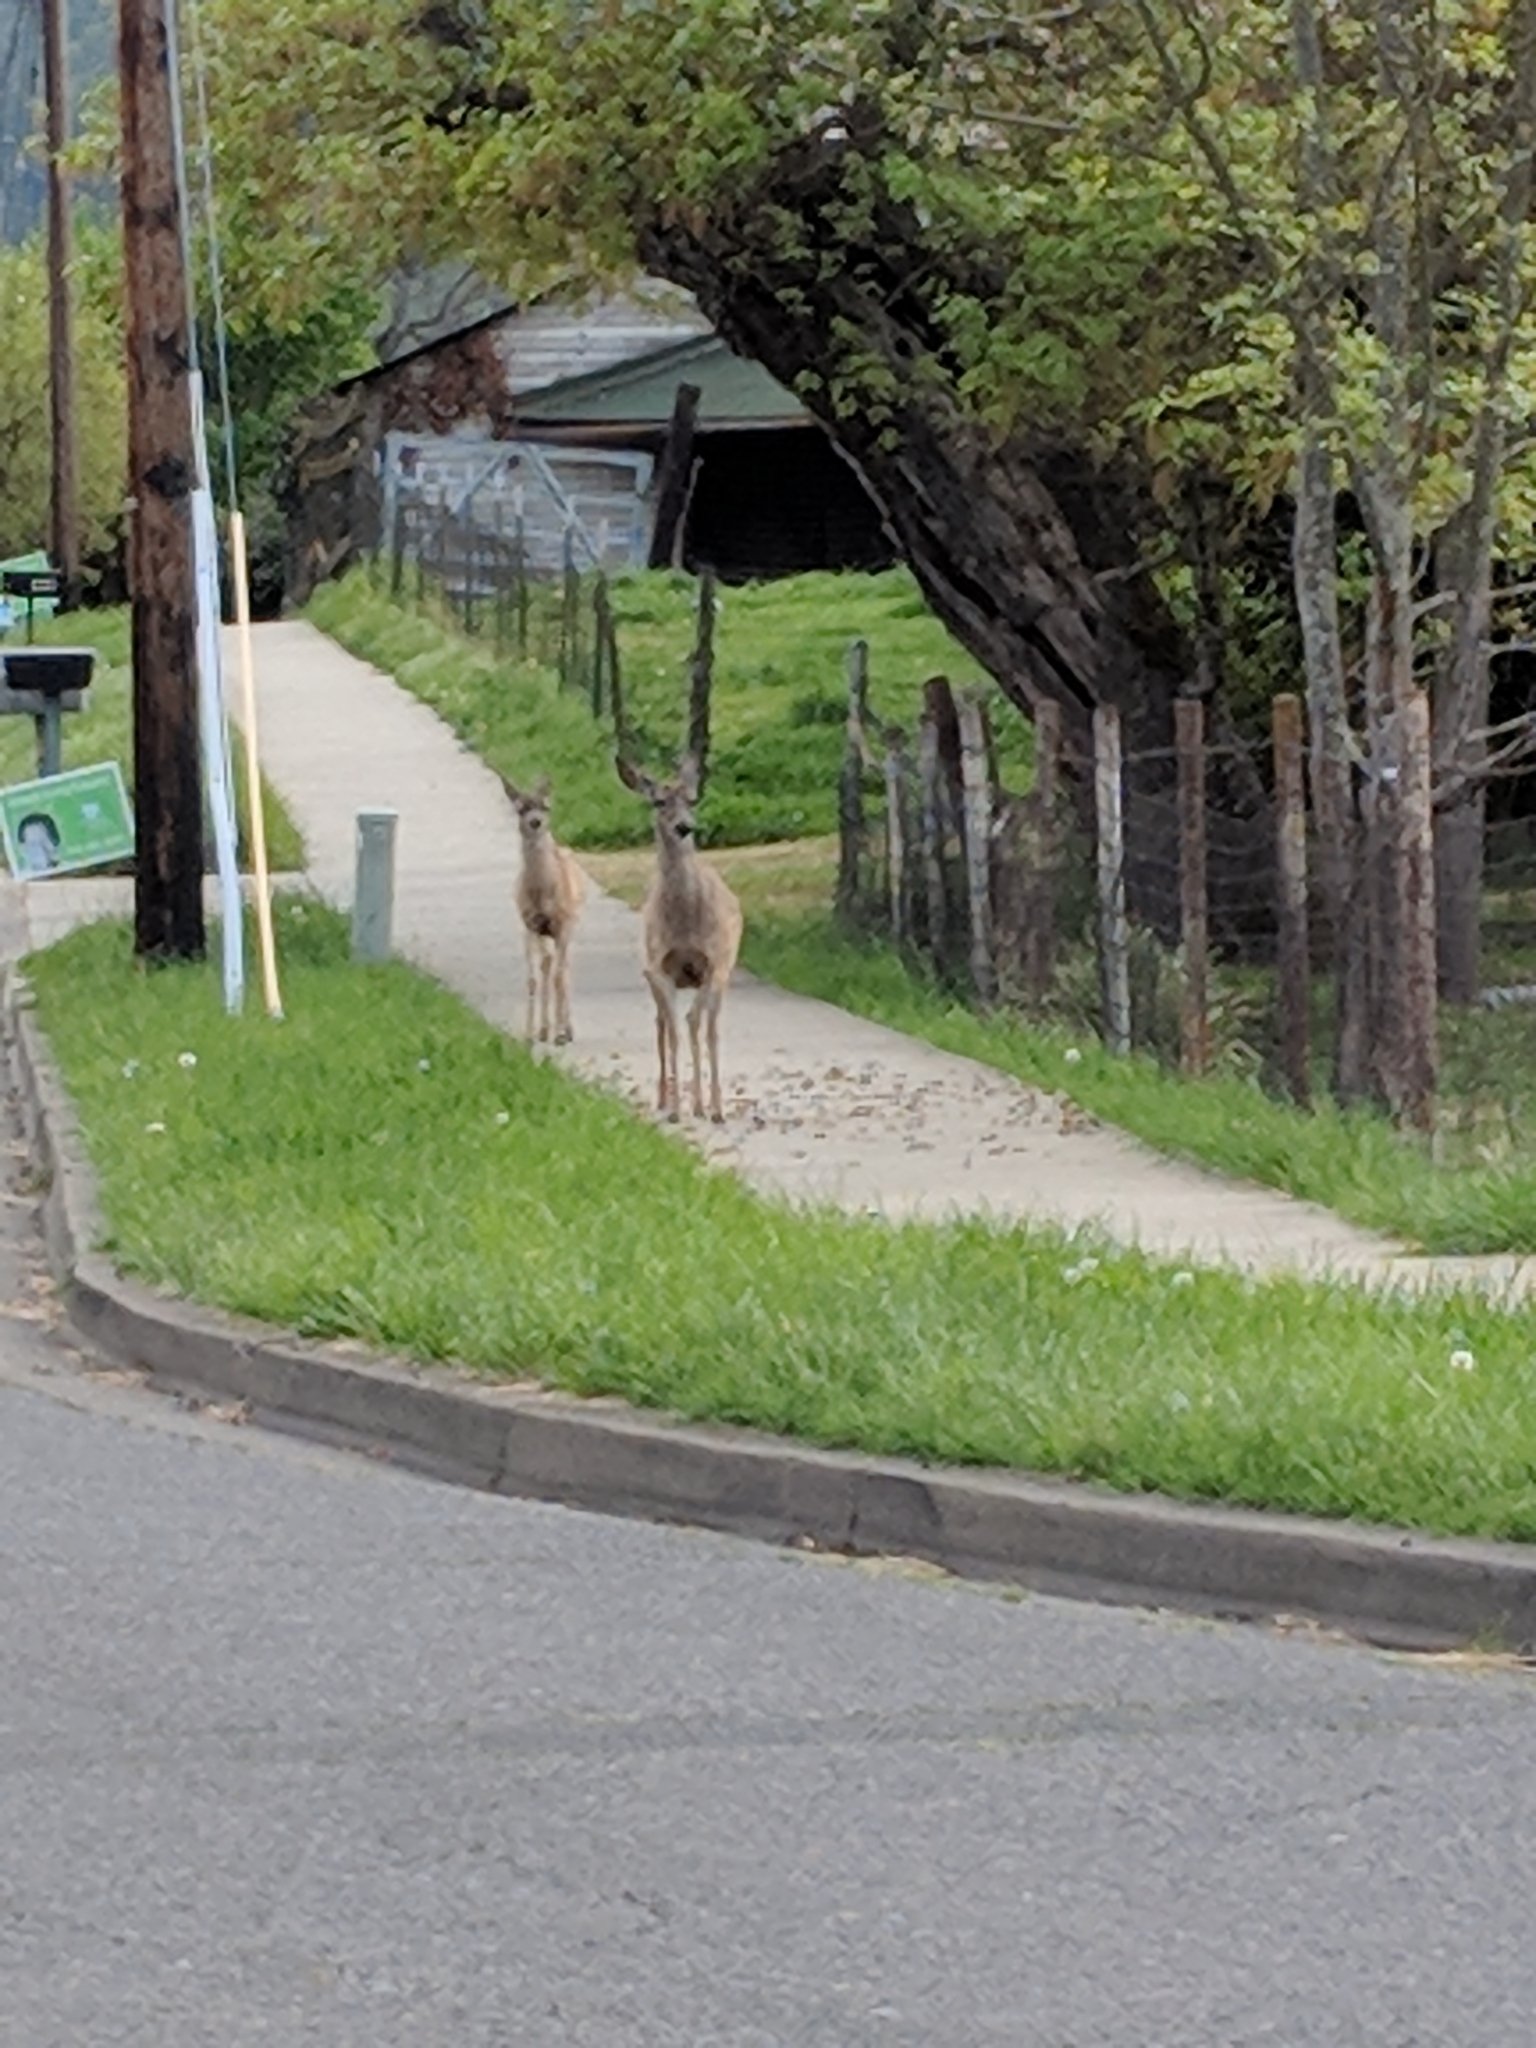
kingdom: Animalia
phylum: Chordata
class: Mammalia
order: Artiodactyla
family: Cervidae
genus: Odocoileus
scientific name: Odocoileus hemionus
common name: Mule deer
